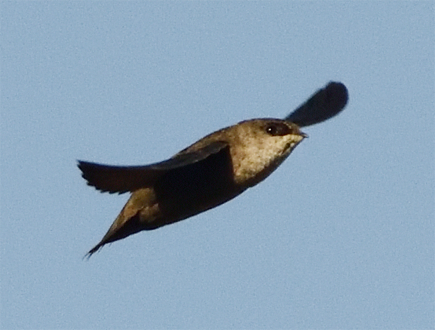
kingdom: Animalia
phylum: Chordata
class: Aves
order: Apodiformes
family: Apodidae
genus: Chaetura
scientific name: Chaetura vauxi
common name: Vaux's swift
